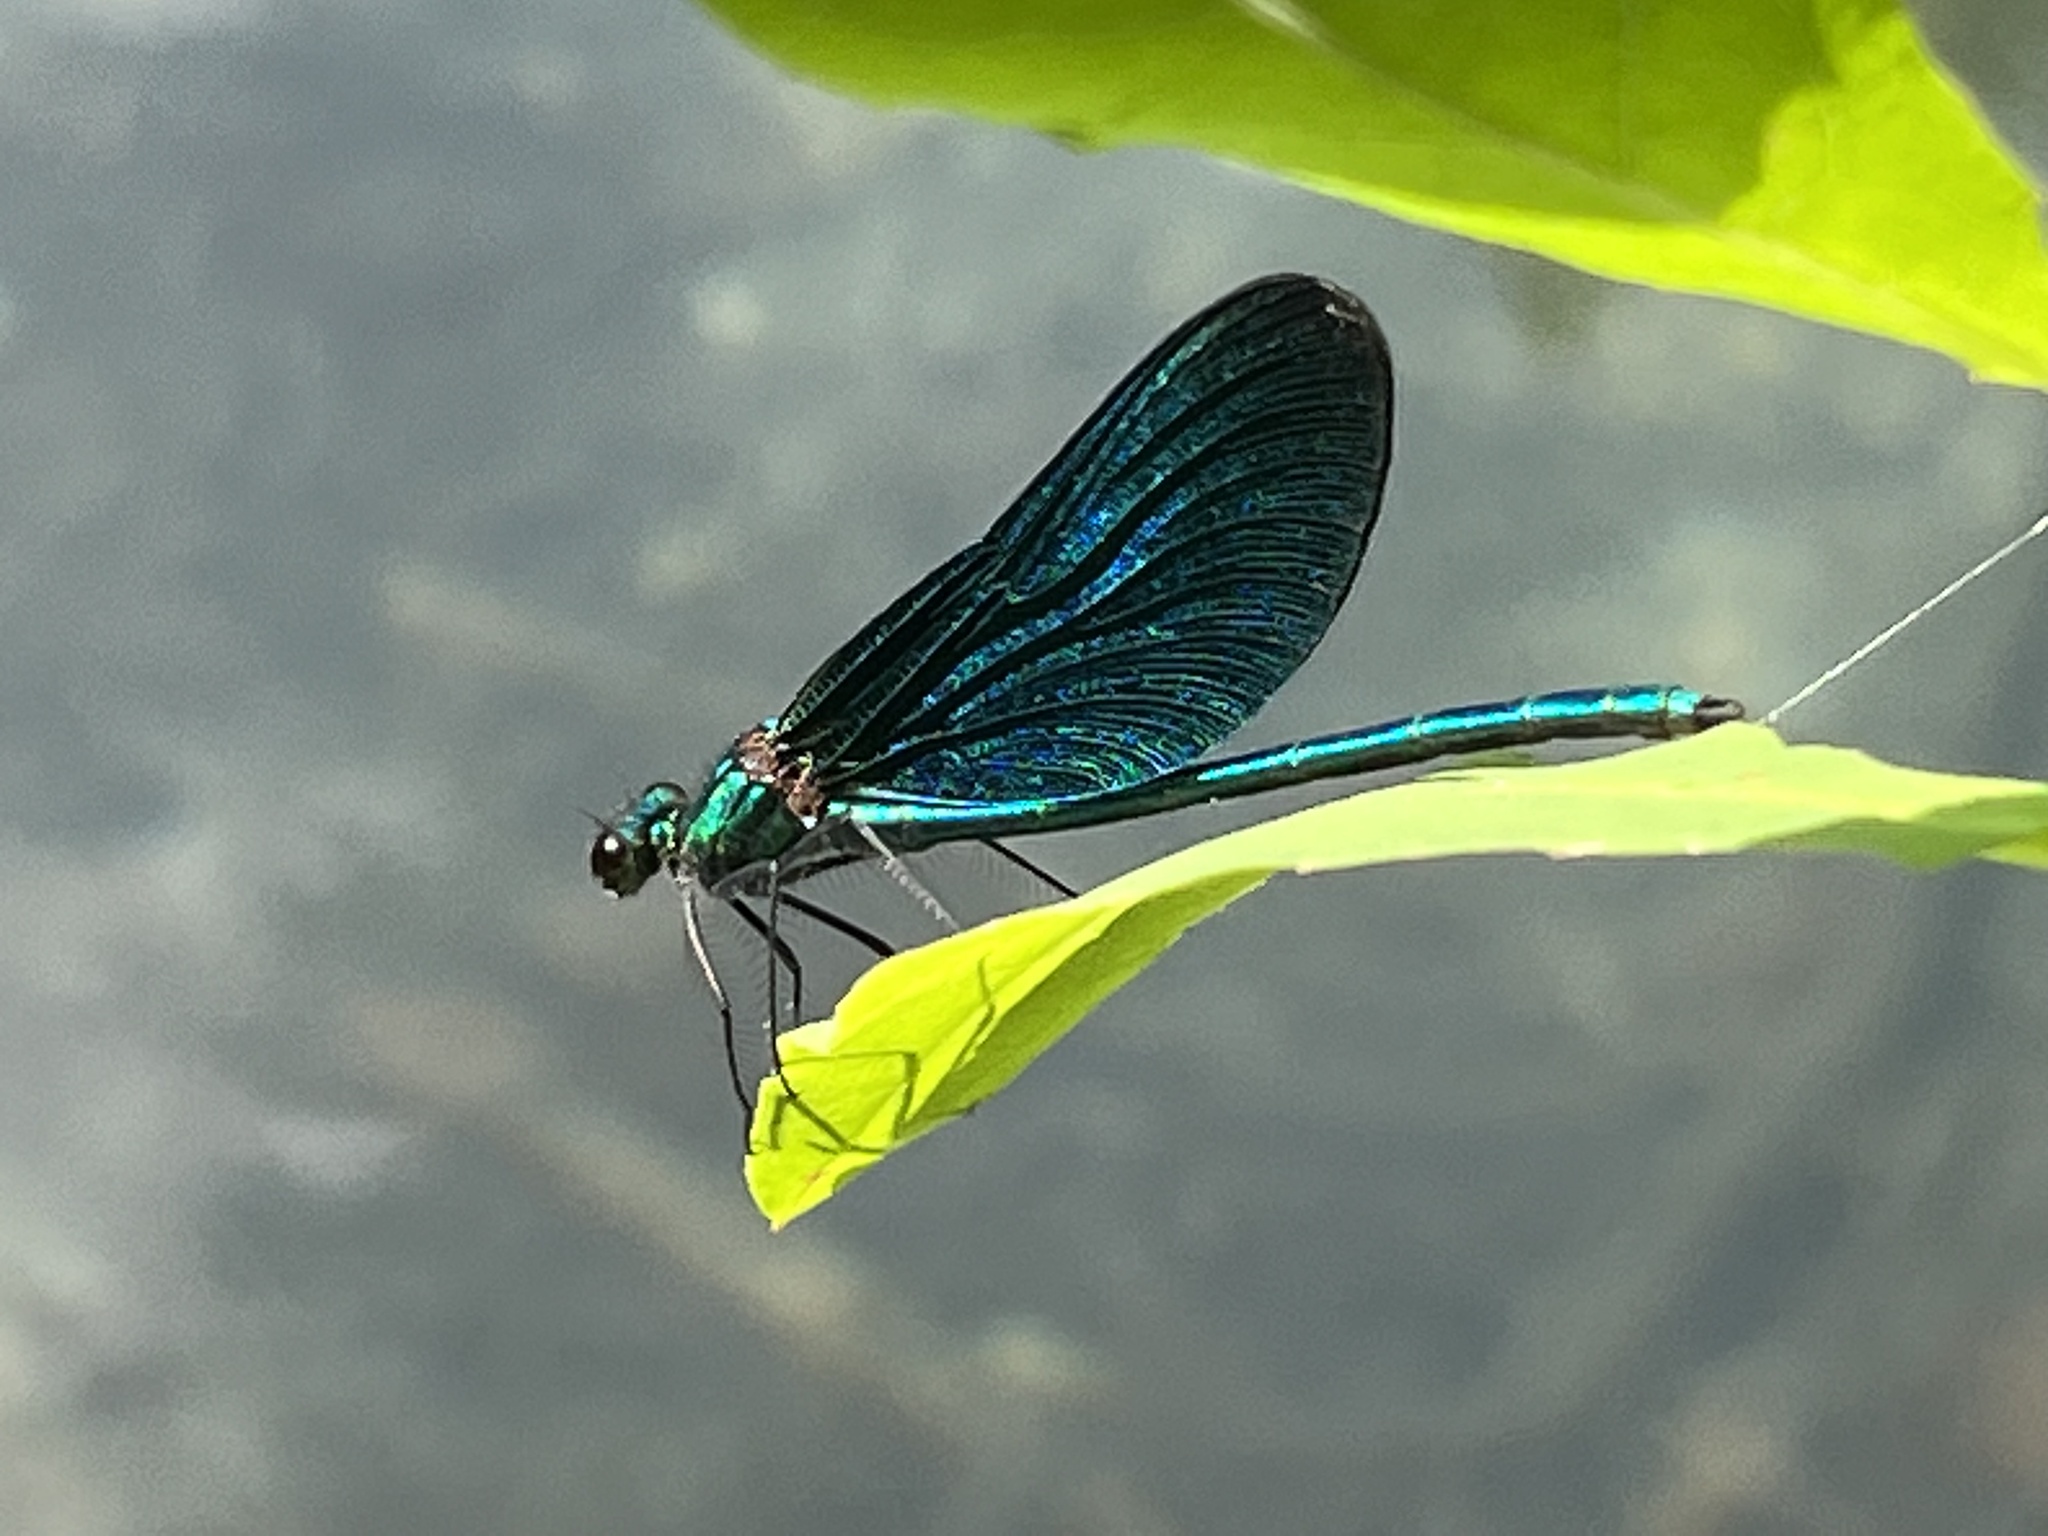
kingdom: Animalia
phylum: Arthropoda
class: Insecta
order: Odonata
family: Calopterygidae
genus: Calopteryx
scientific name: Calopteryx virgo
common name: Beautiful demoiselle
